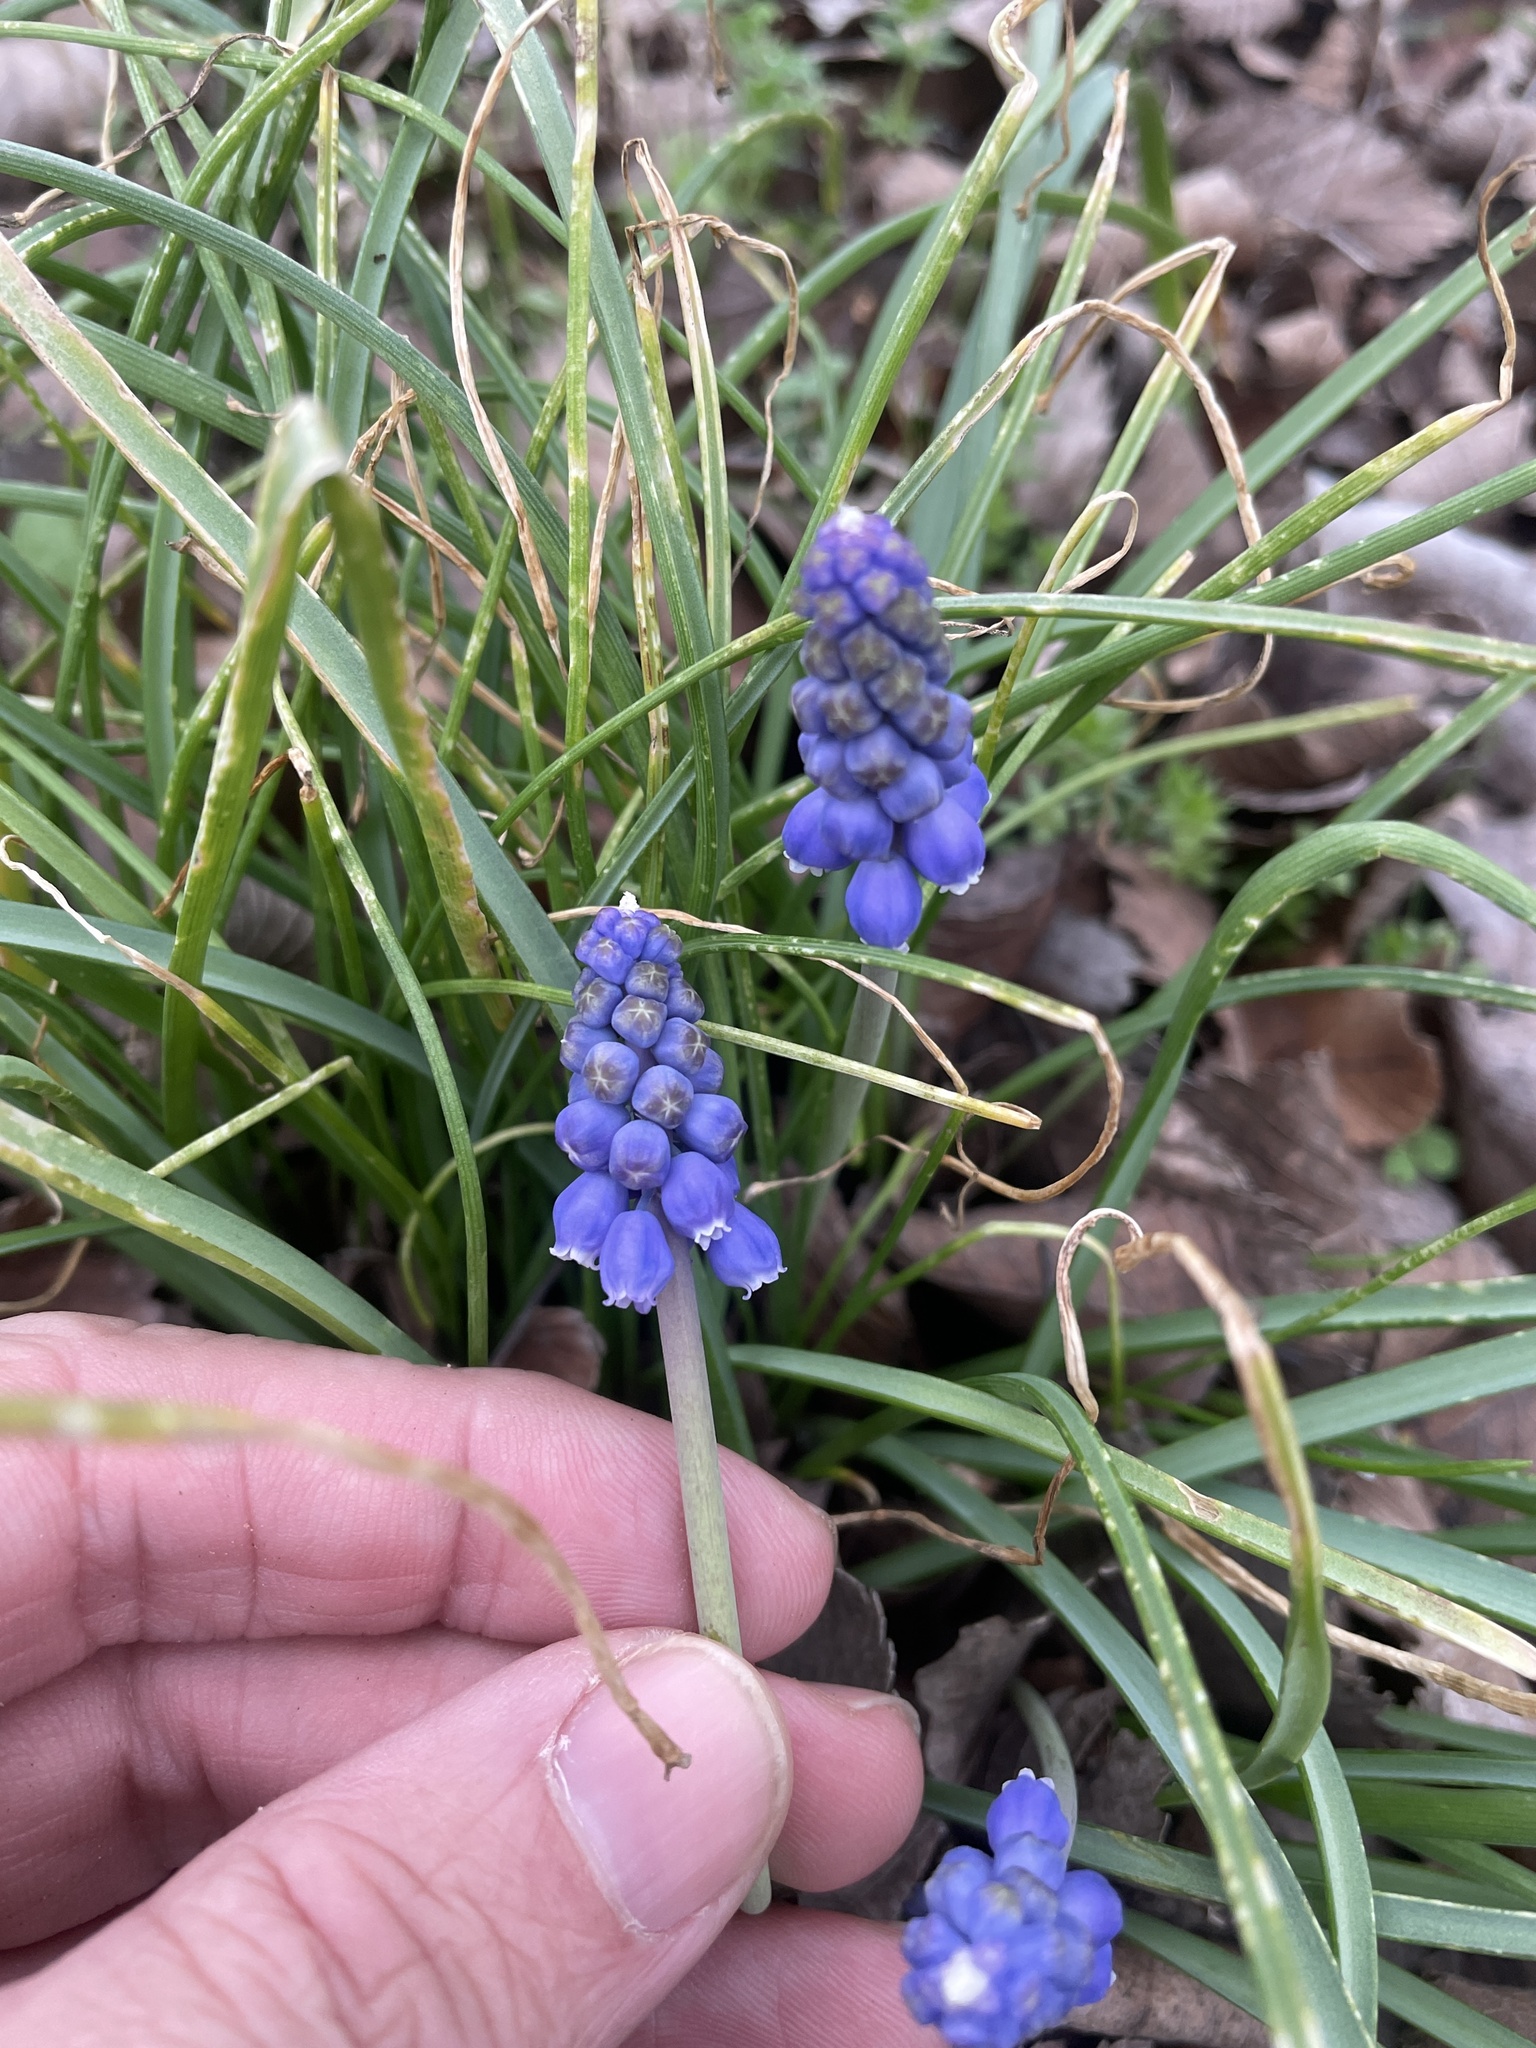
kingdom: Plantae
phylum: Tracheophyta
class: Liliopsida
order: Asparagales
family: Asparagaceae
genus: Muscari
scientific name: Muscari neglectum
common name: Grape-hyacinth
